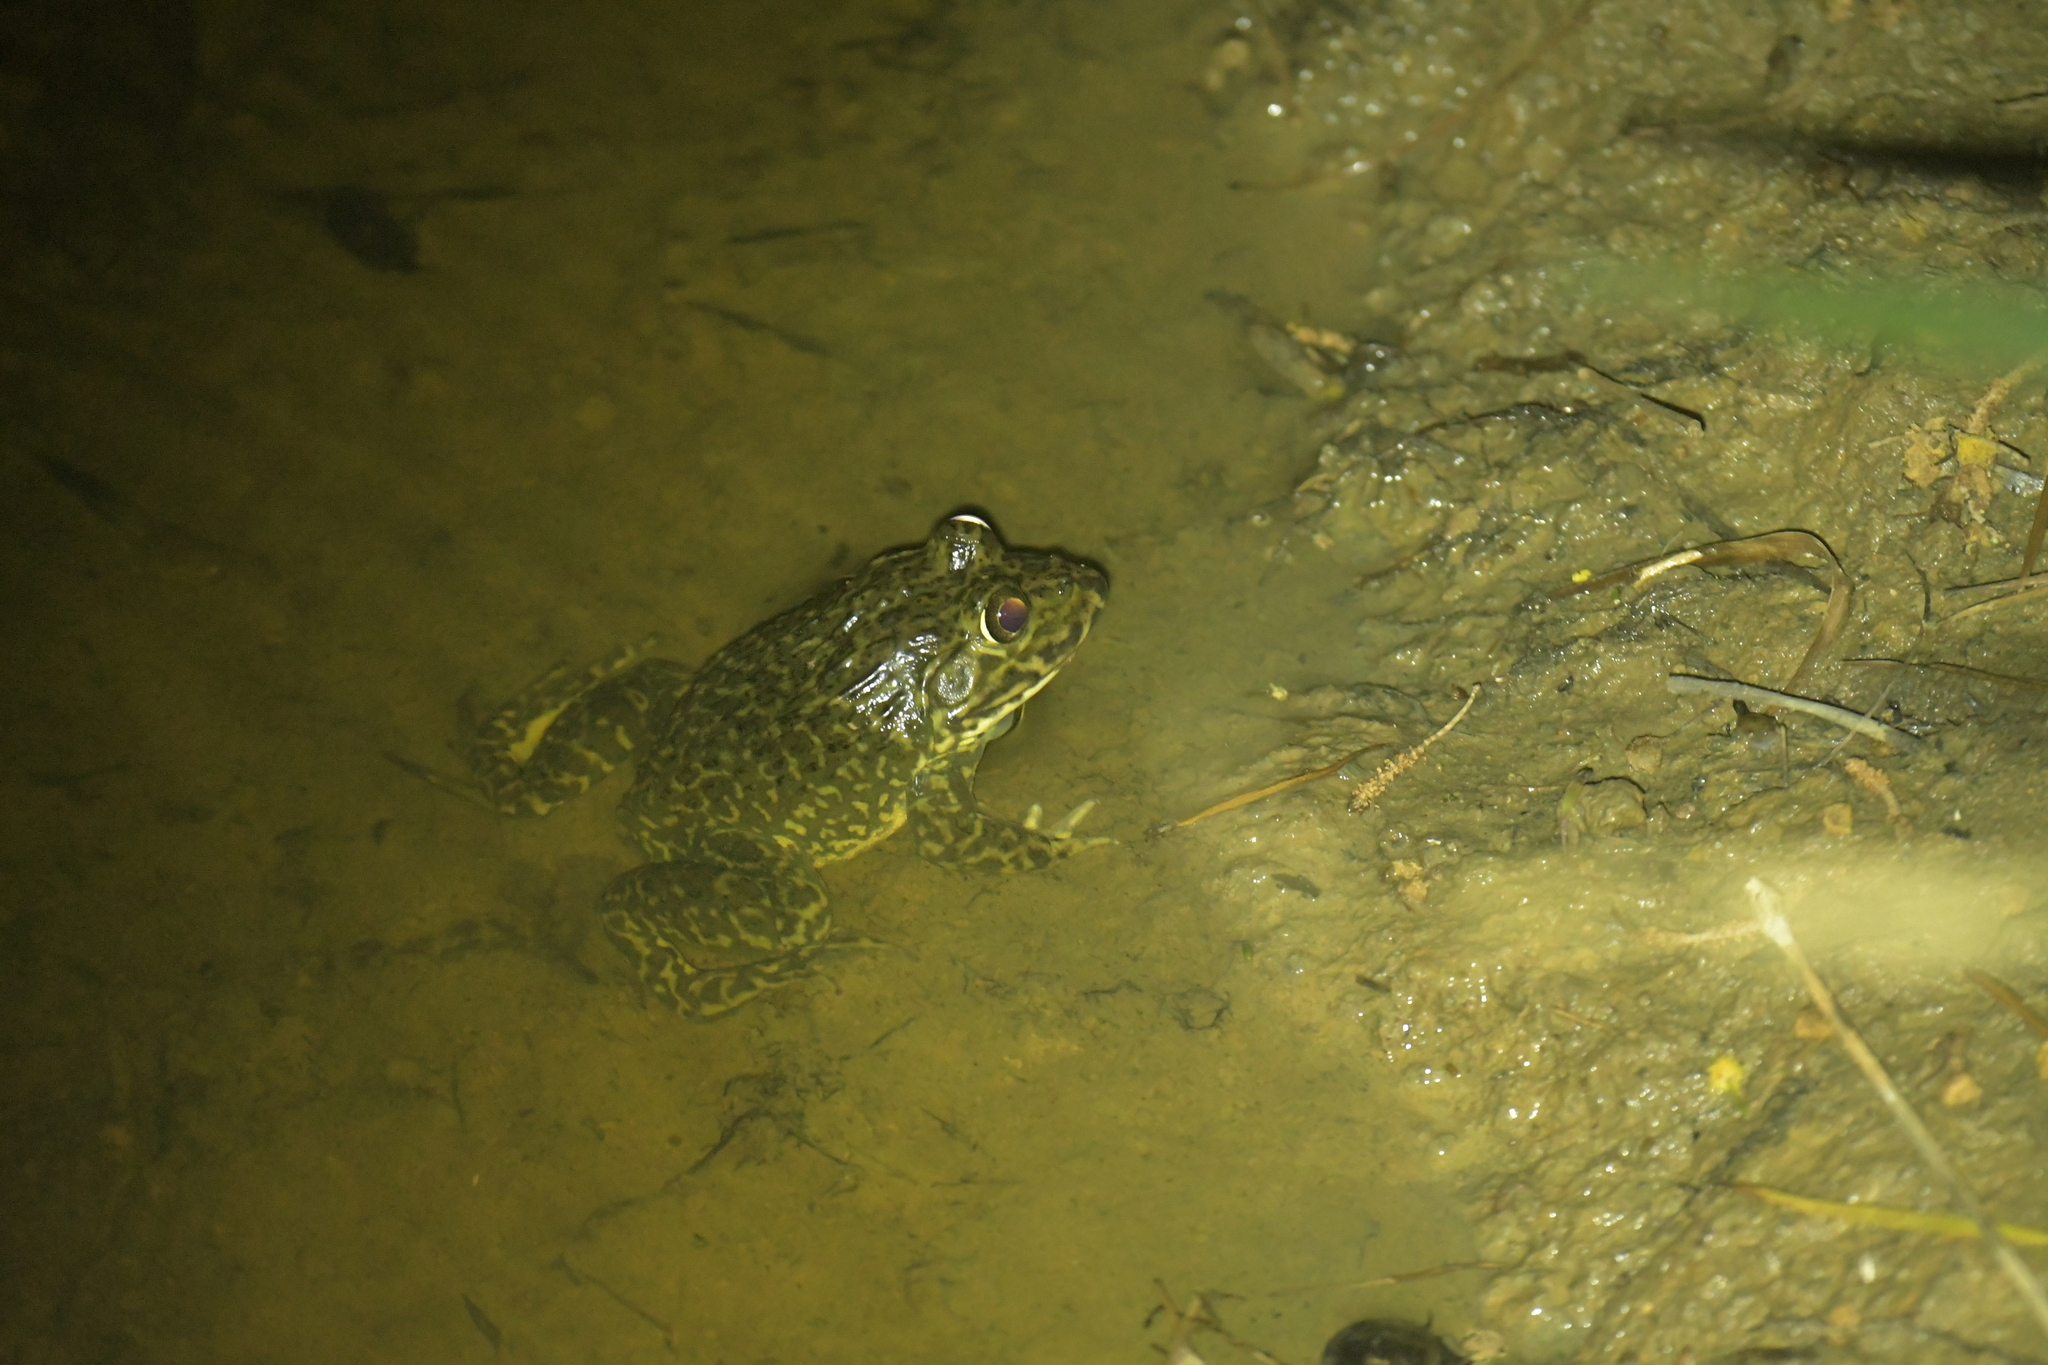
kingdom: Animalia
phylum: Chordata
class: Amphibia
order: Anura
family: Dicroglossidae
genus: Hoplobatrachus
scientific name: Hoplobatrachus rugulosus
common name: Chinese edible frog
